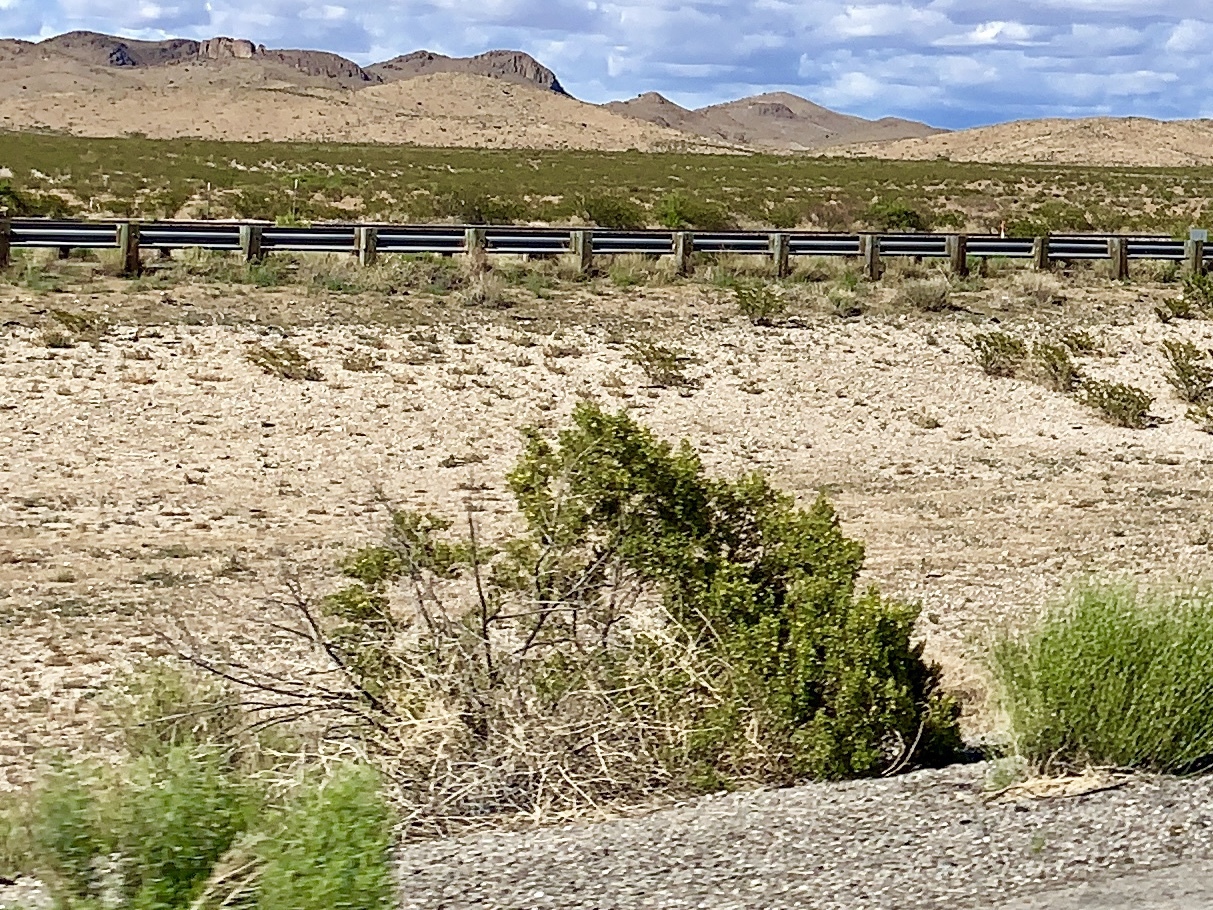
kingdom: Plantae
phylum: Tracheophyta
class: Magnoliopsida
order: Zygophyllales
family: Zygophyllaceae
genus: Larrea
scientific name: Larrea tridentata
